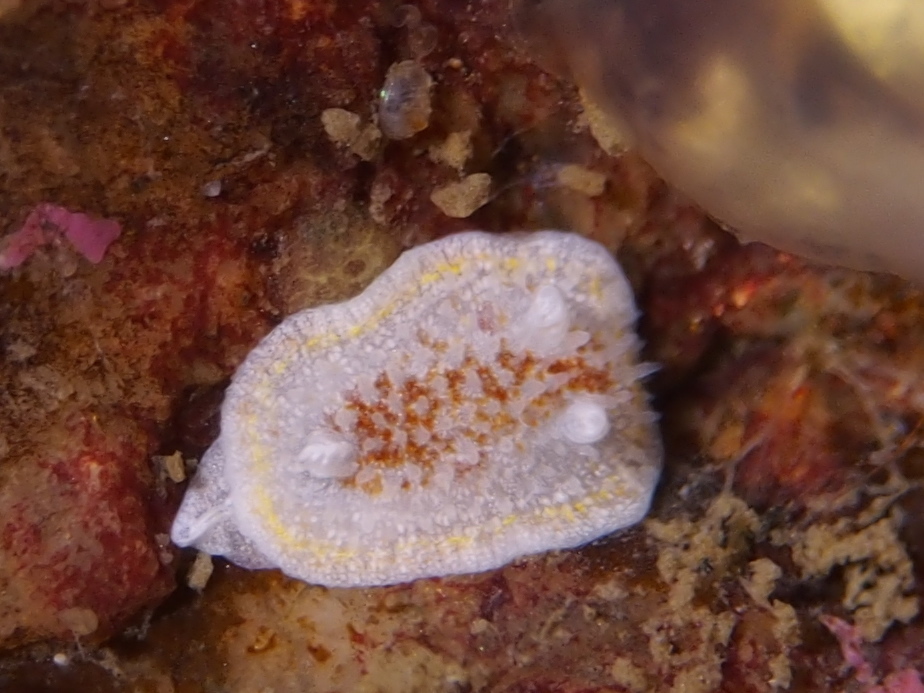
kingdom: Animalia
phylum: Mollusca
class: Gastropoda
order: Nudibranchia
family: Calycidorididae
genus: Diaphorodoris
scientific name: Diaphorodoris luteocincta
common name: Fried egg nudibranch
